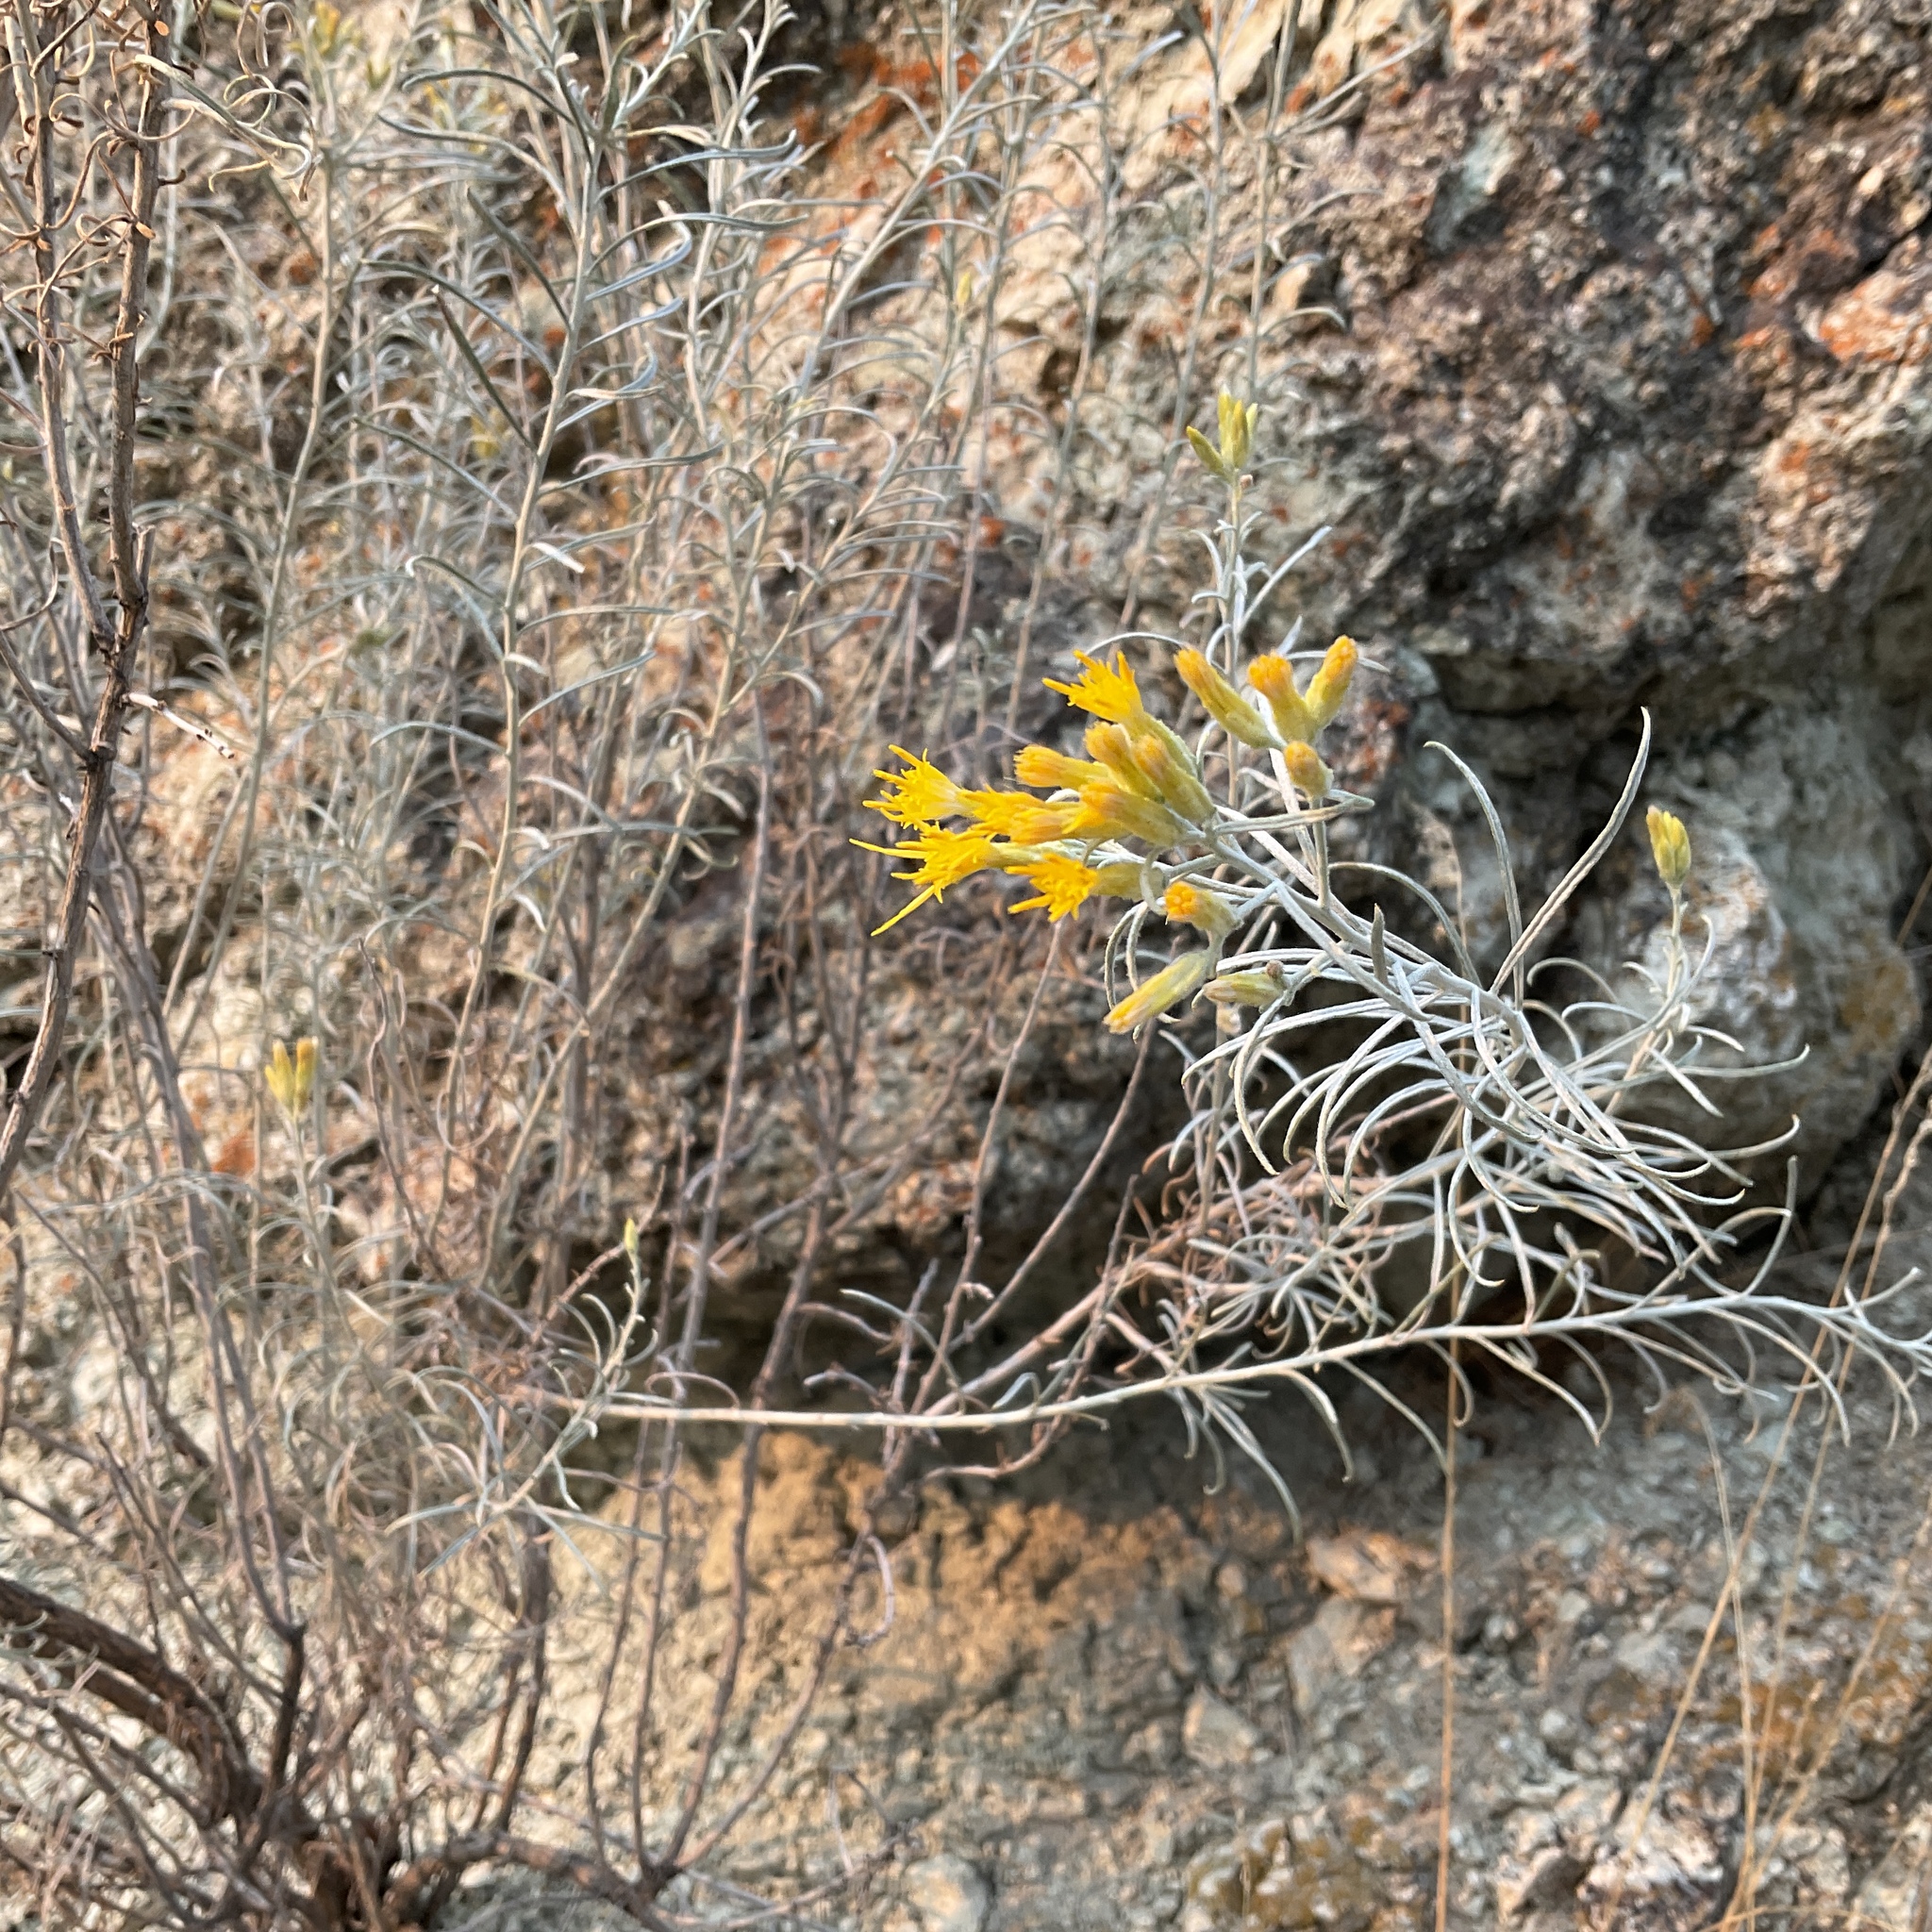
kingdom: Plantae
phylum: Tracheophyta
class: Magnoliopsida
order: Asterales
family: Asteraceae
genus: Ericameria
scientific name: Ericameria nauseosa
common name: Rubber rabbitbrush
